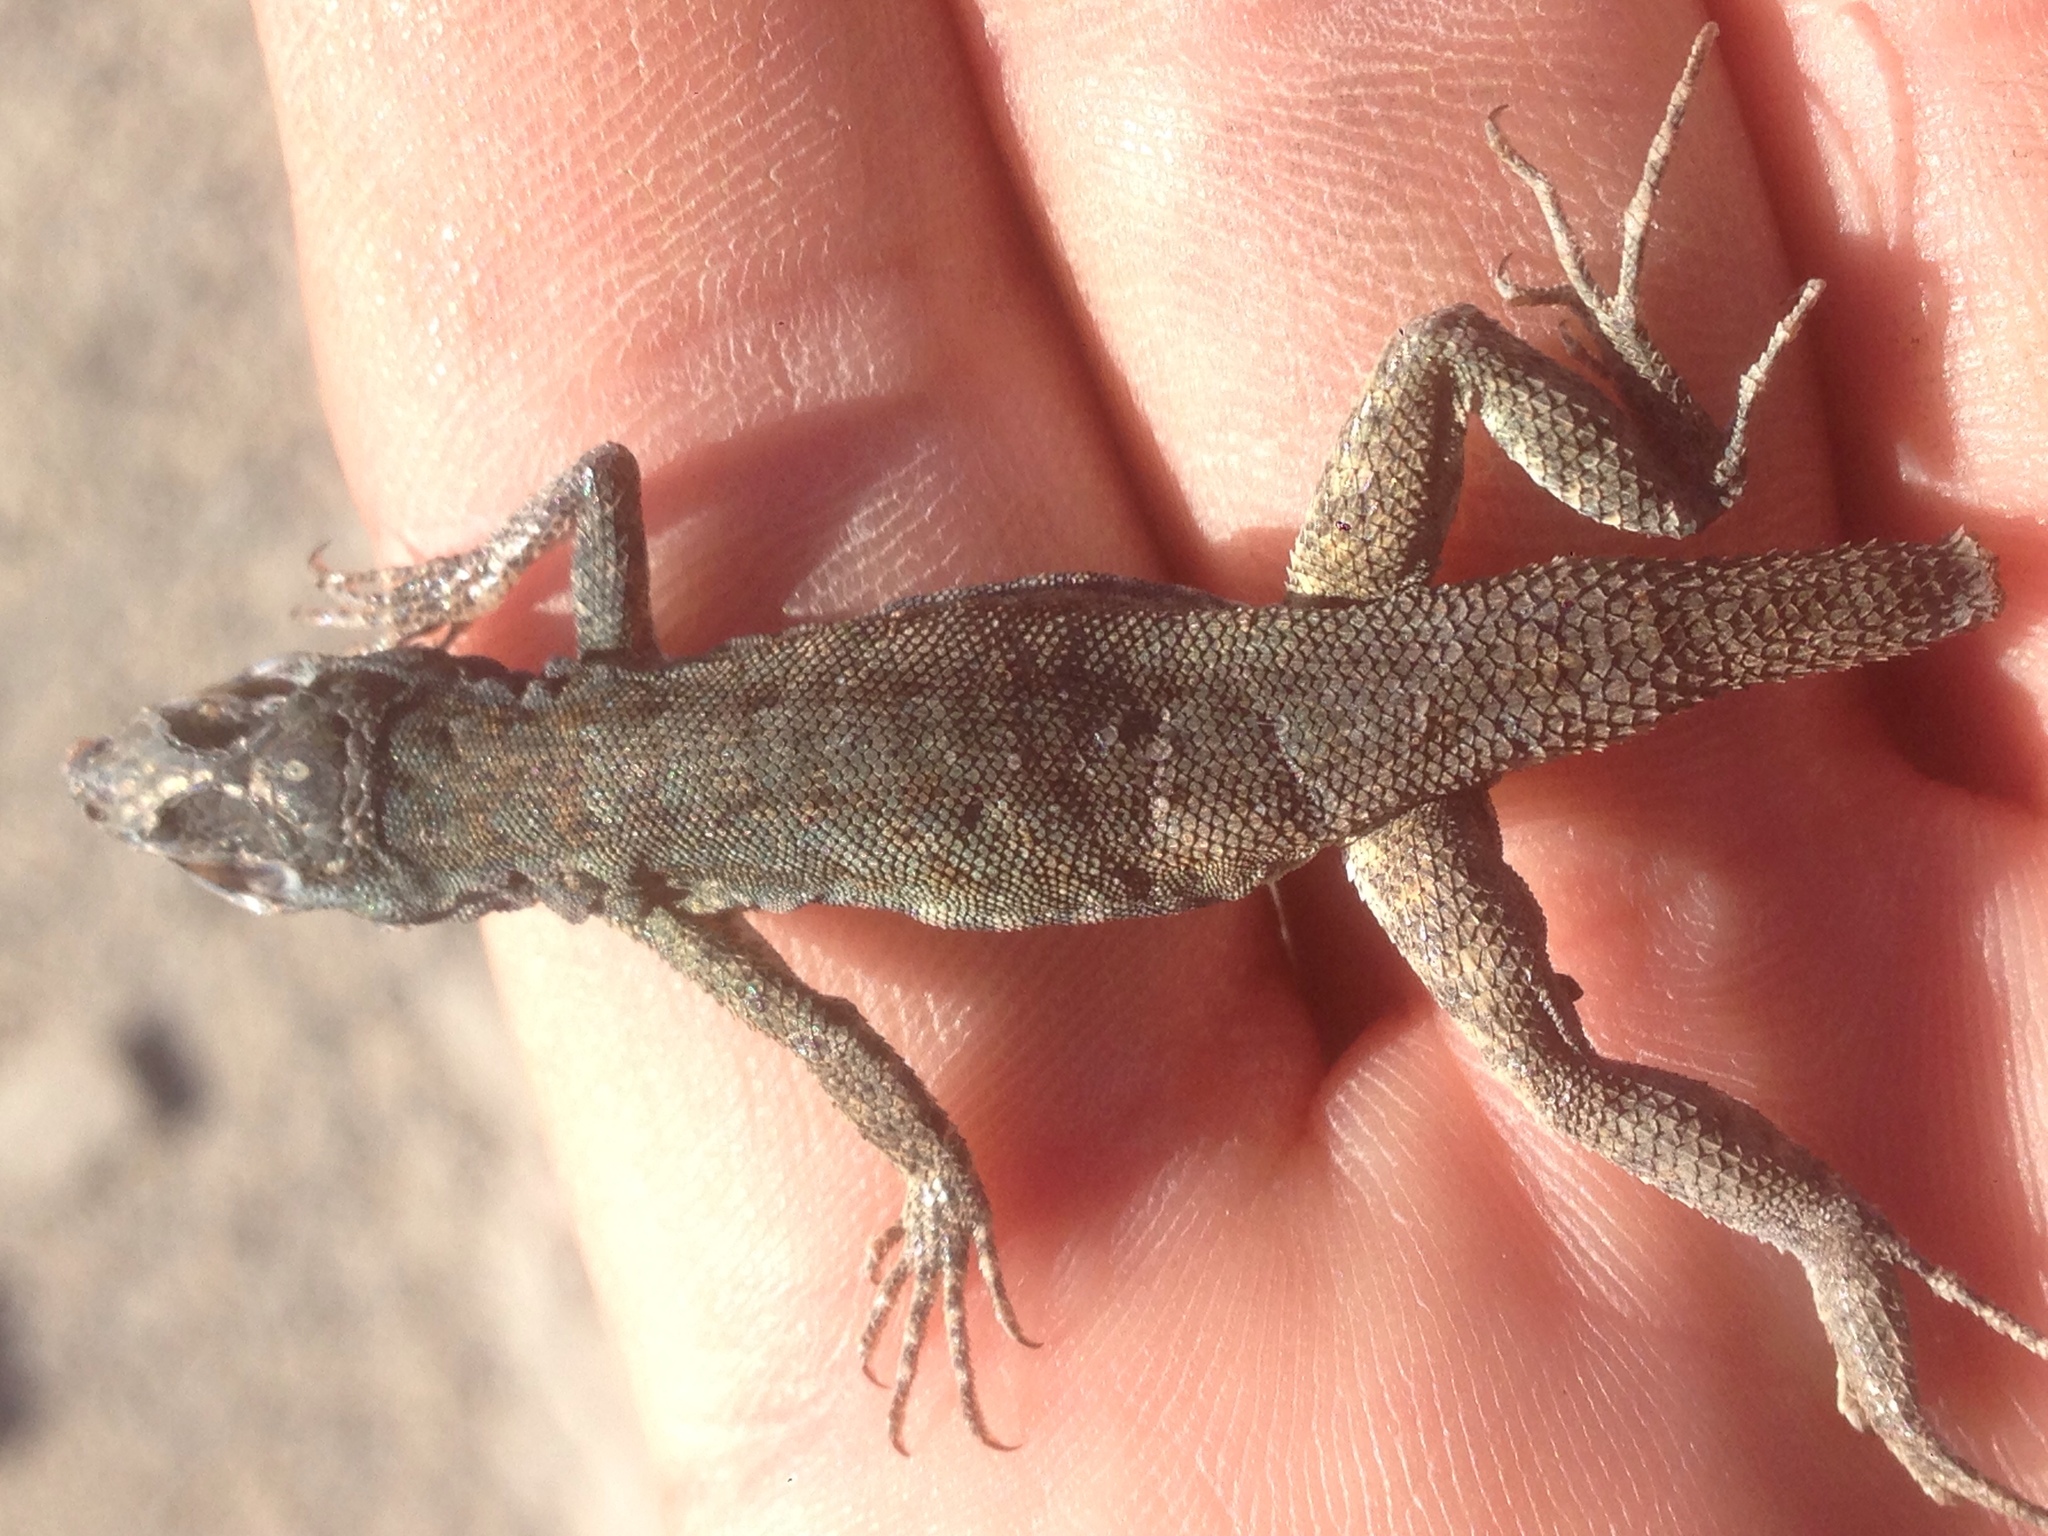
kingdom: Animalia
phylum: Chordata
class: Squamata
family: Phrynosomatidae
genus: Uta
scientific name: Uta stansburiana
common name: Side-blotched lizard
